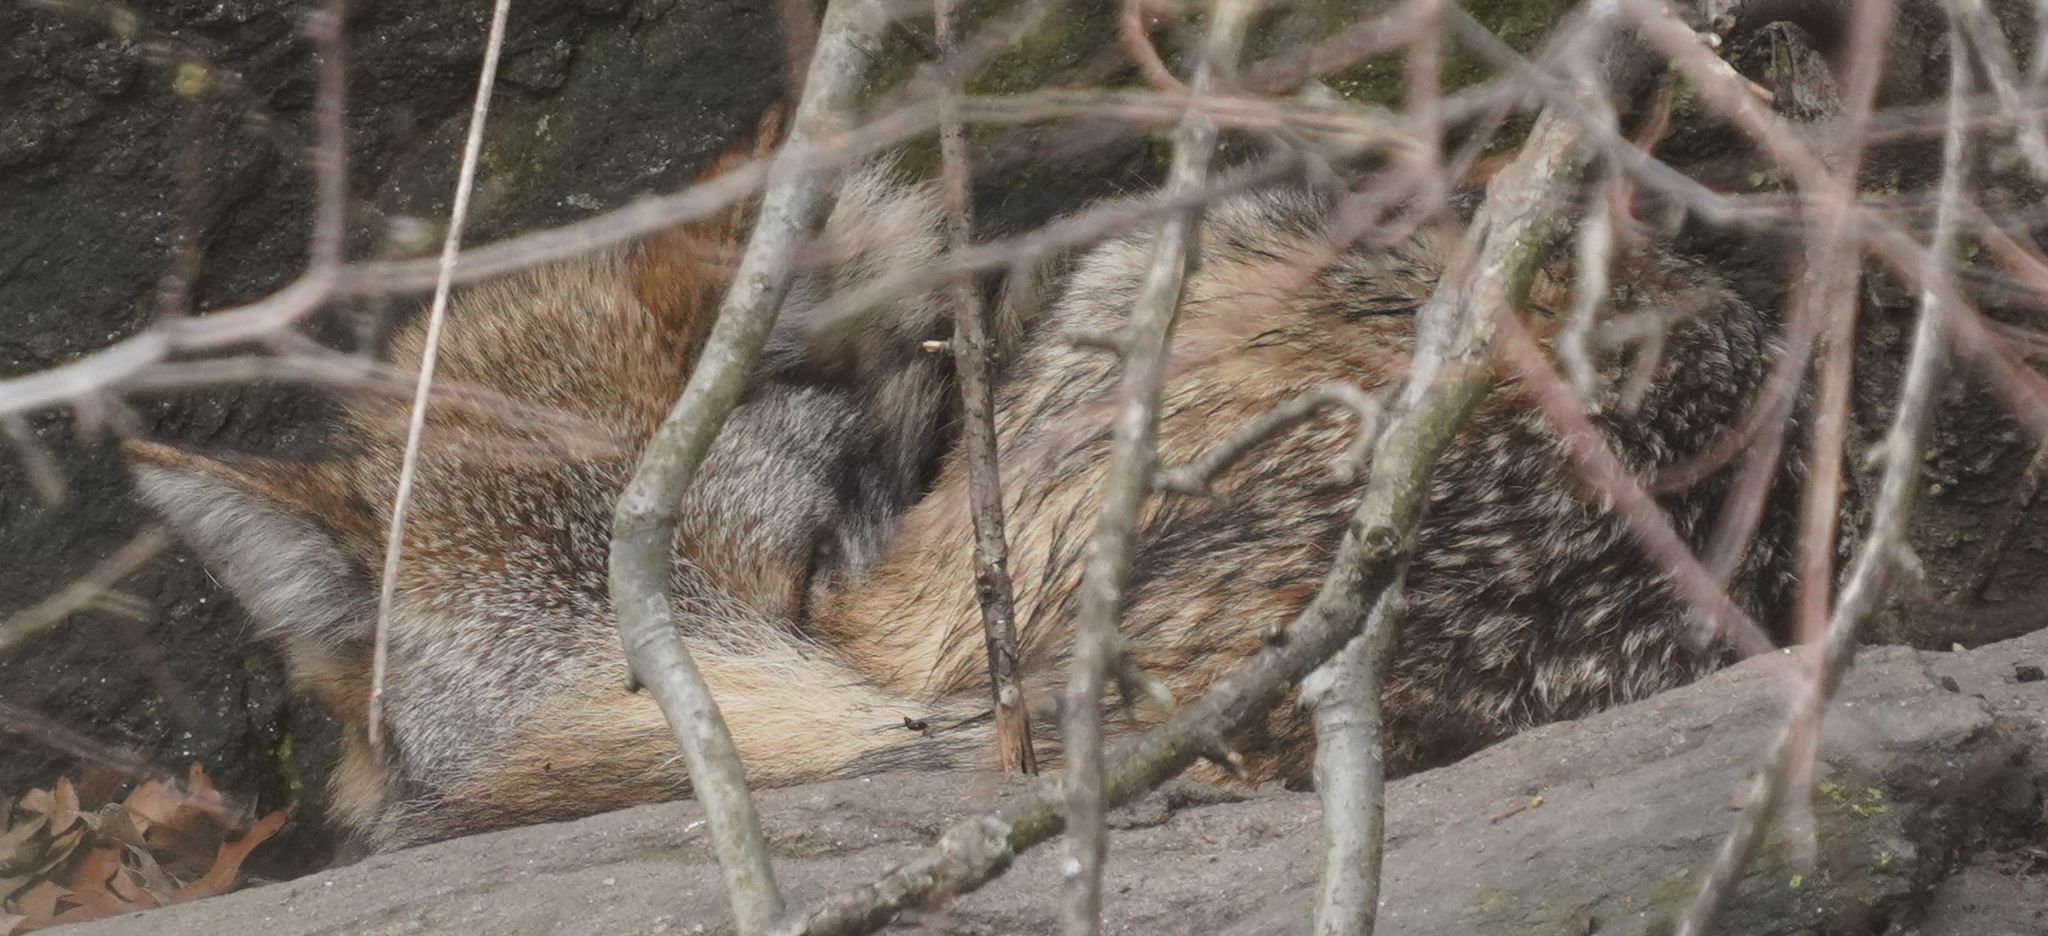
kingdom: Animalia
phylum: Chordata
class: Mammalia
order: Carnivora
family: Canidae
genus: Canis
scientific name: Canis latrans
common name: Coyote
